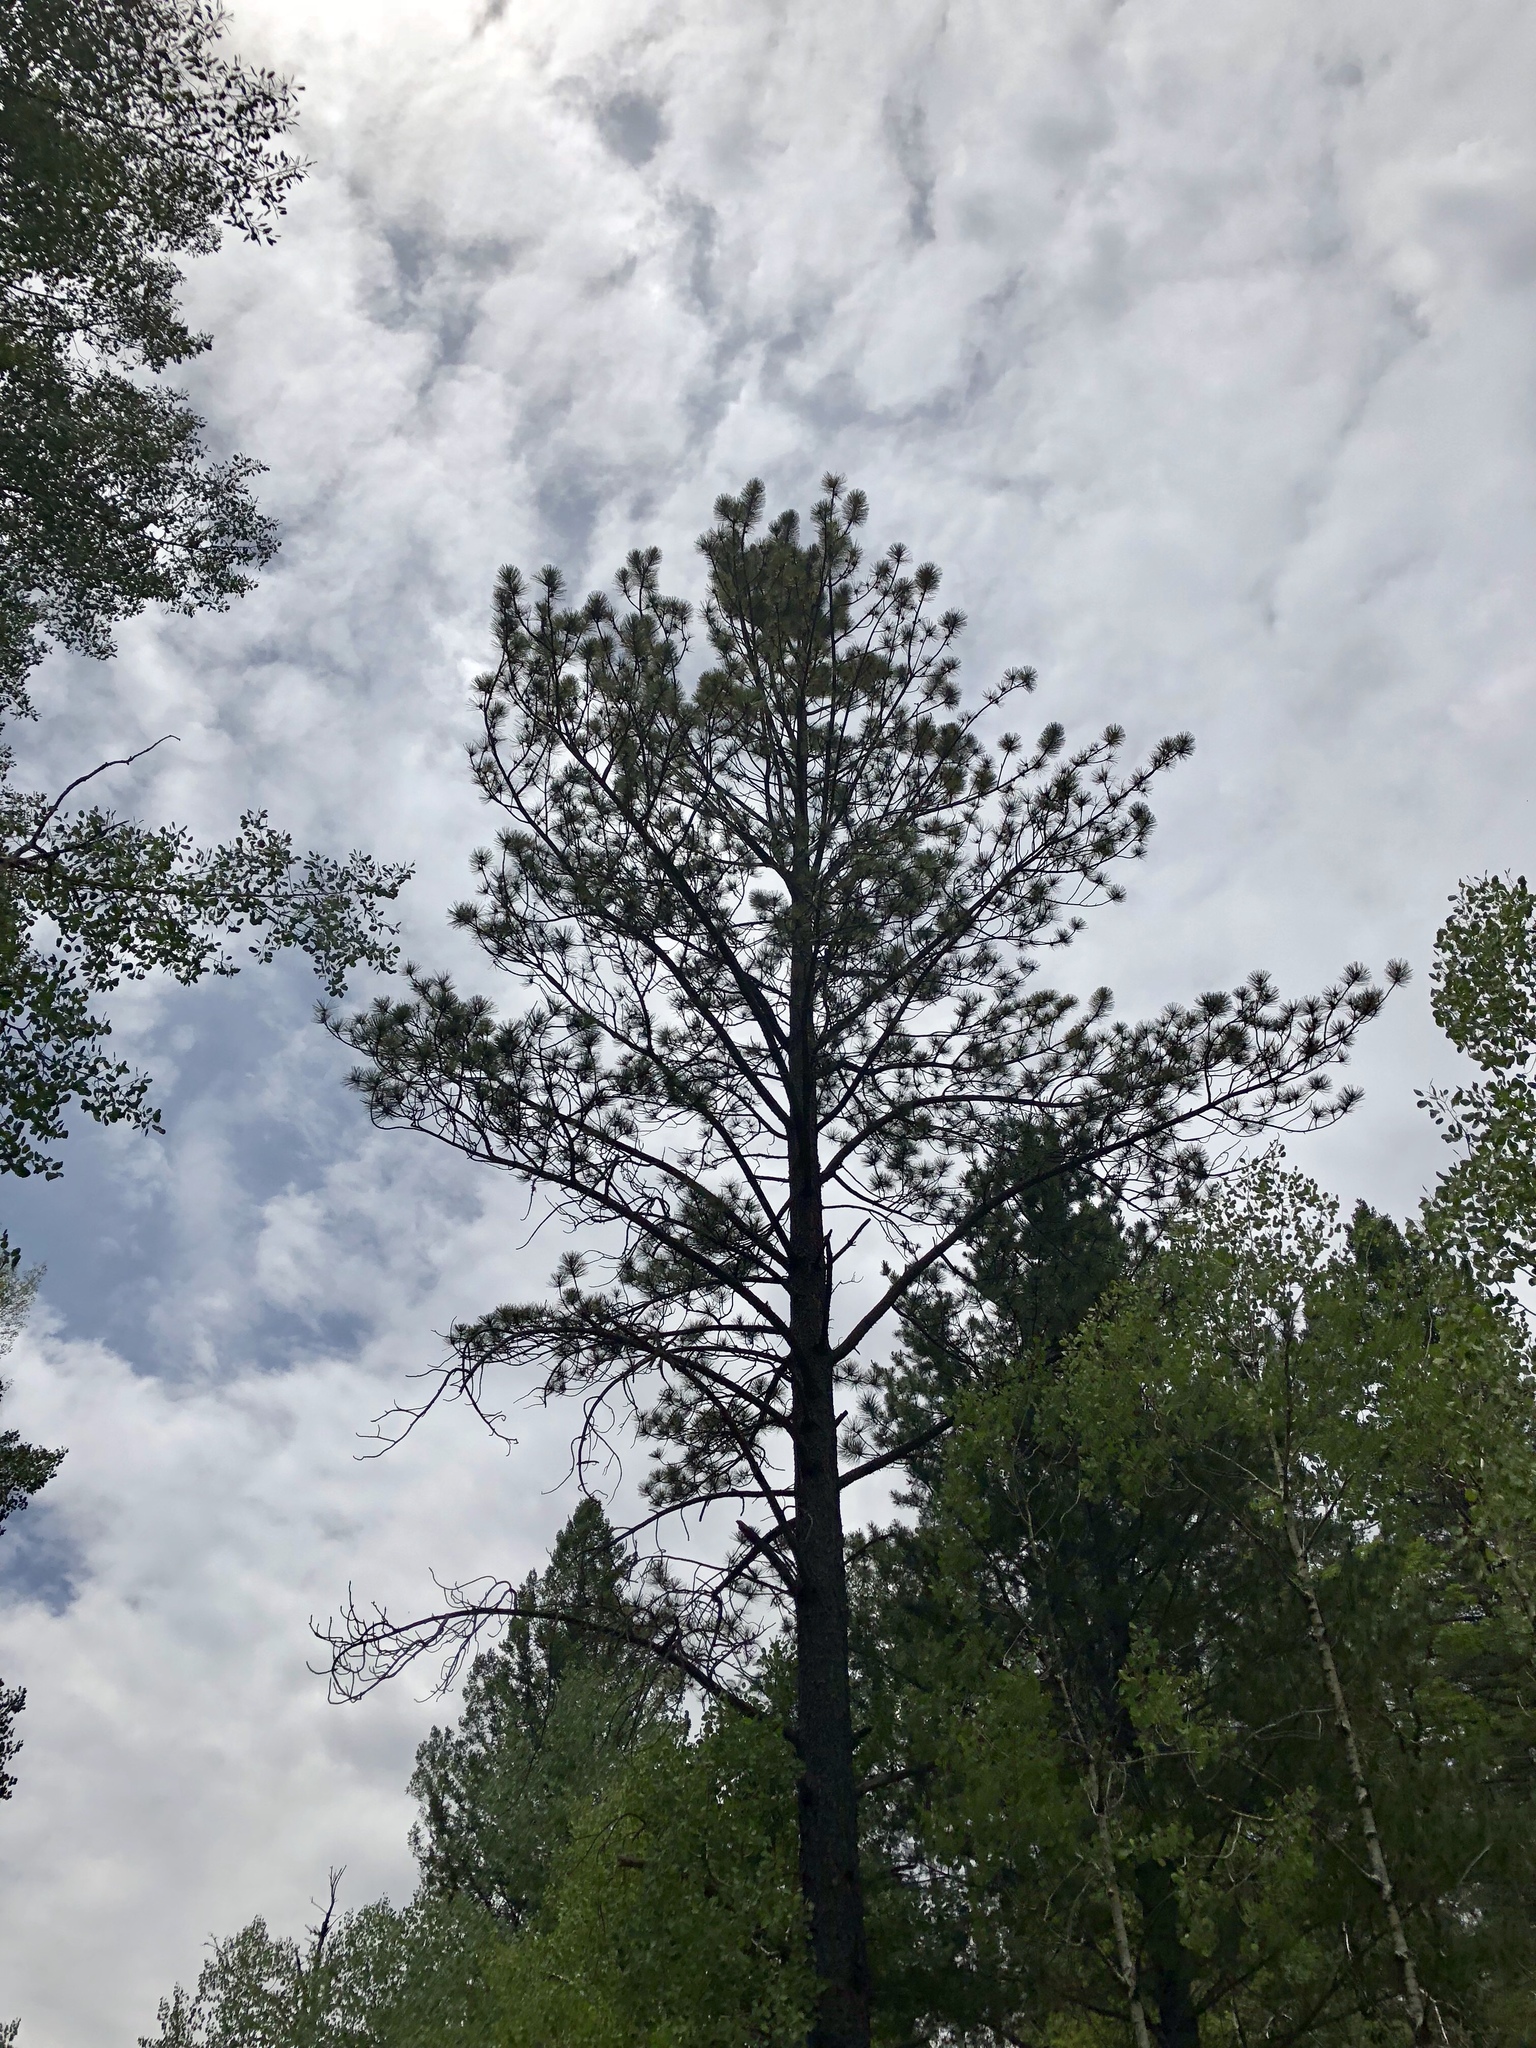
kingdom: Plantae
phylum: Tracheophyta
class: Pinopsida
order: Pinales
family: Pinaceae
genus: Pinus
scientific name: Pinus strobiformis
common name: Southwestern white pine
